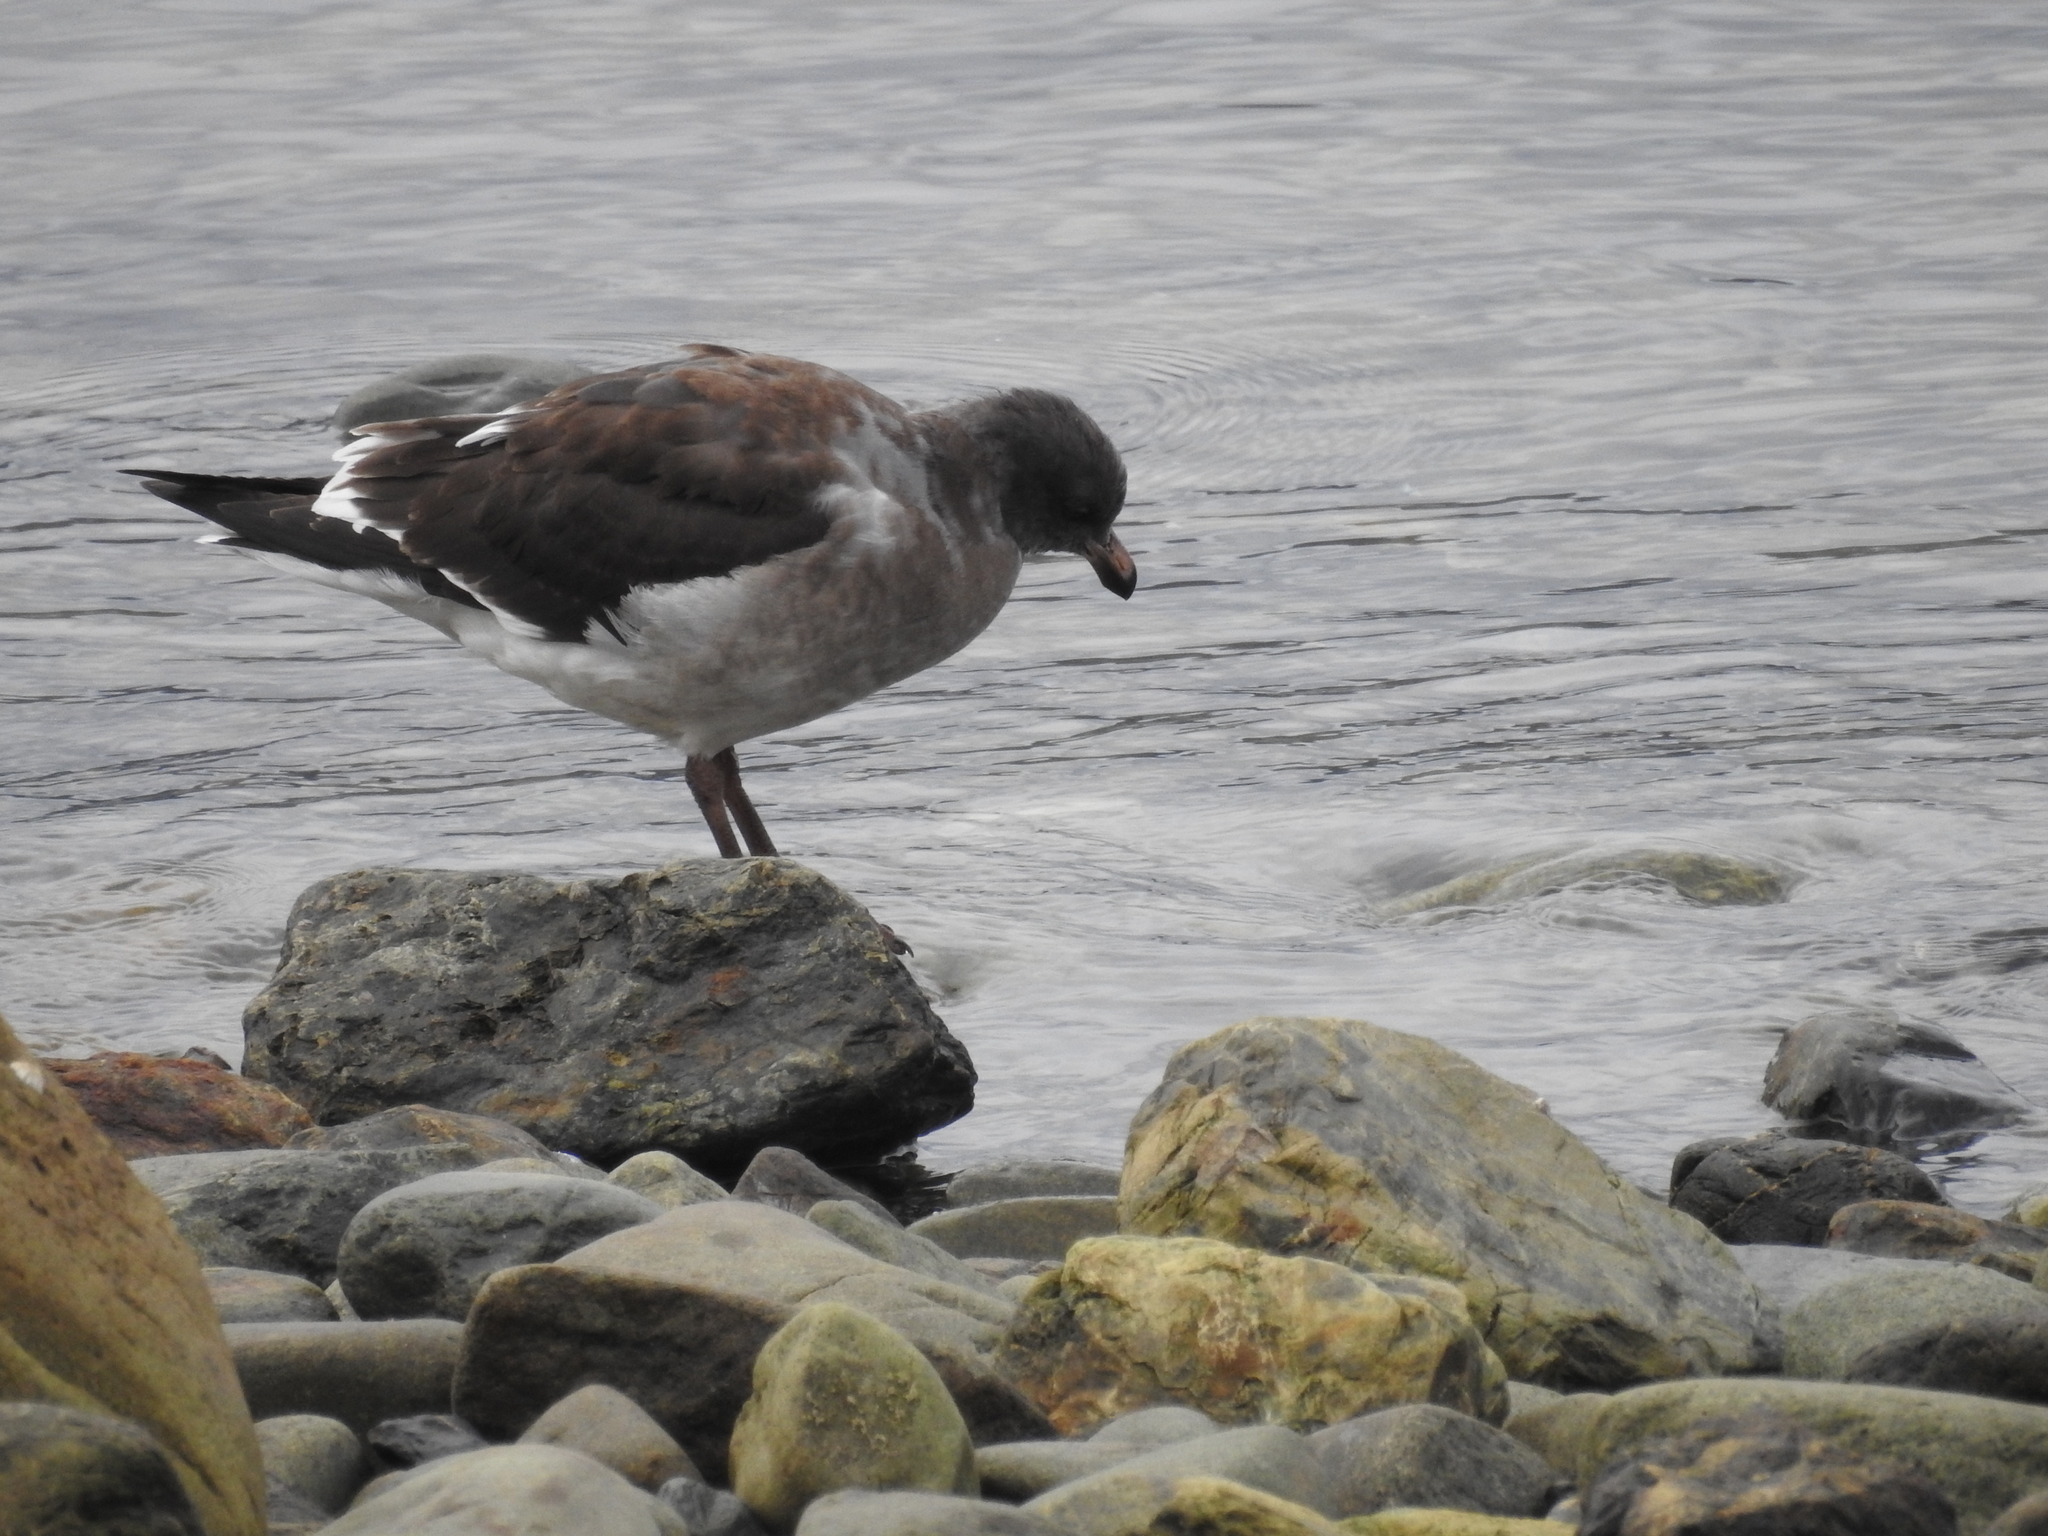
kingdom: Animalia
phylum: Chordata
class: Aves
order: Charadriiformes
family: Laridae
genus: Leucophaeus
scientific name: Leucophaeus scoresbii
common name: Dolphin gull
